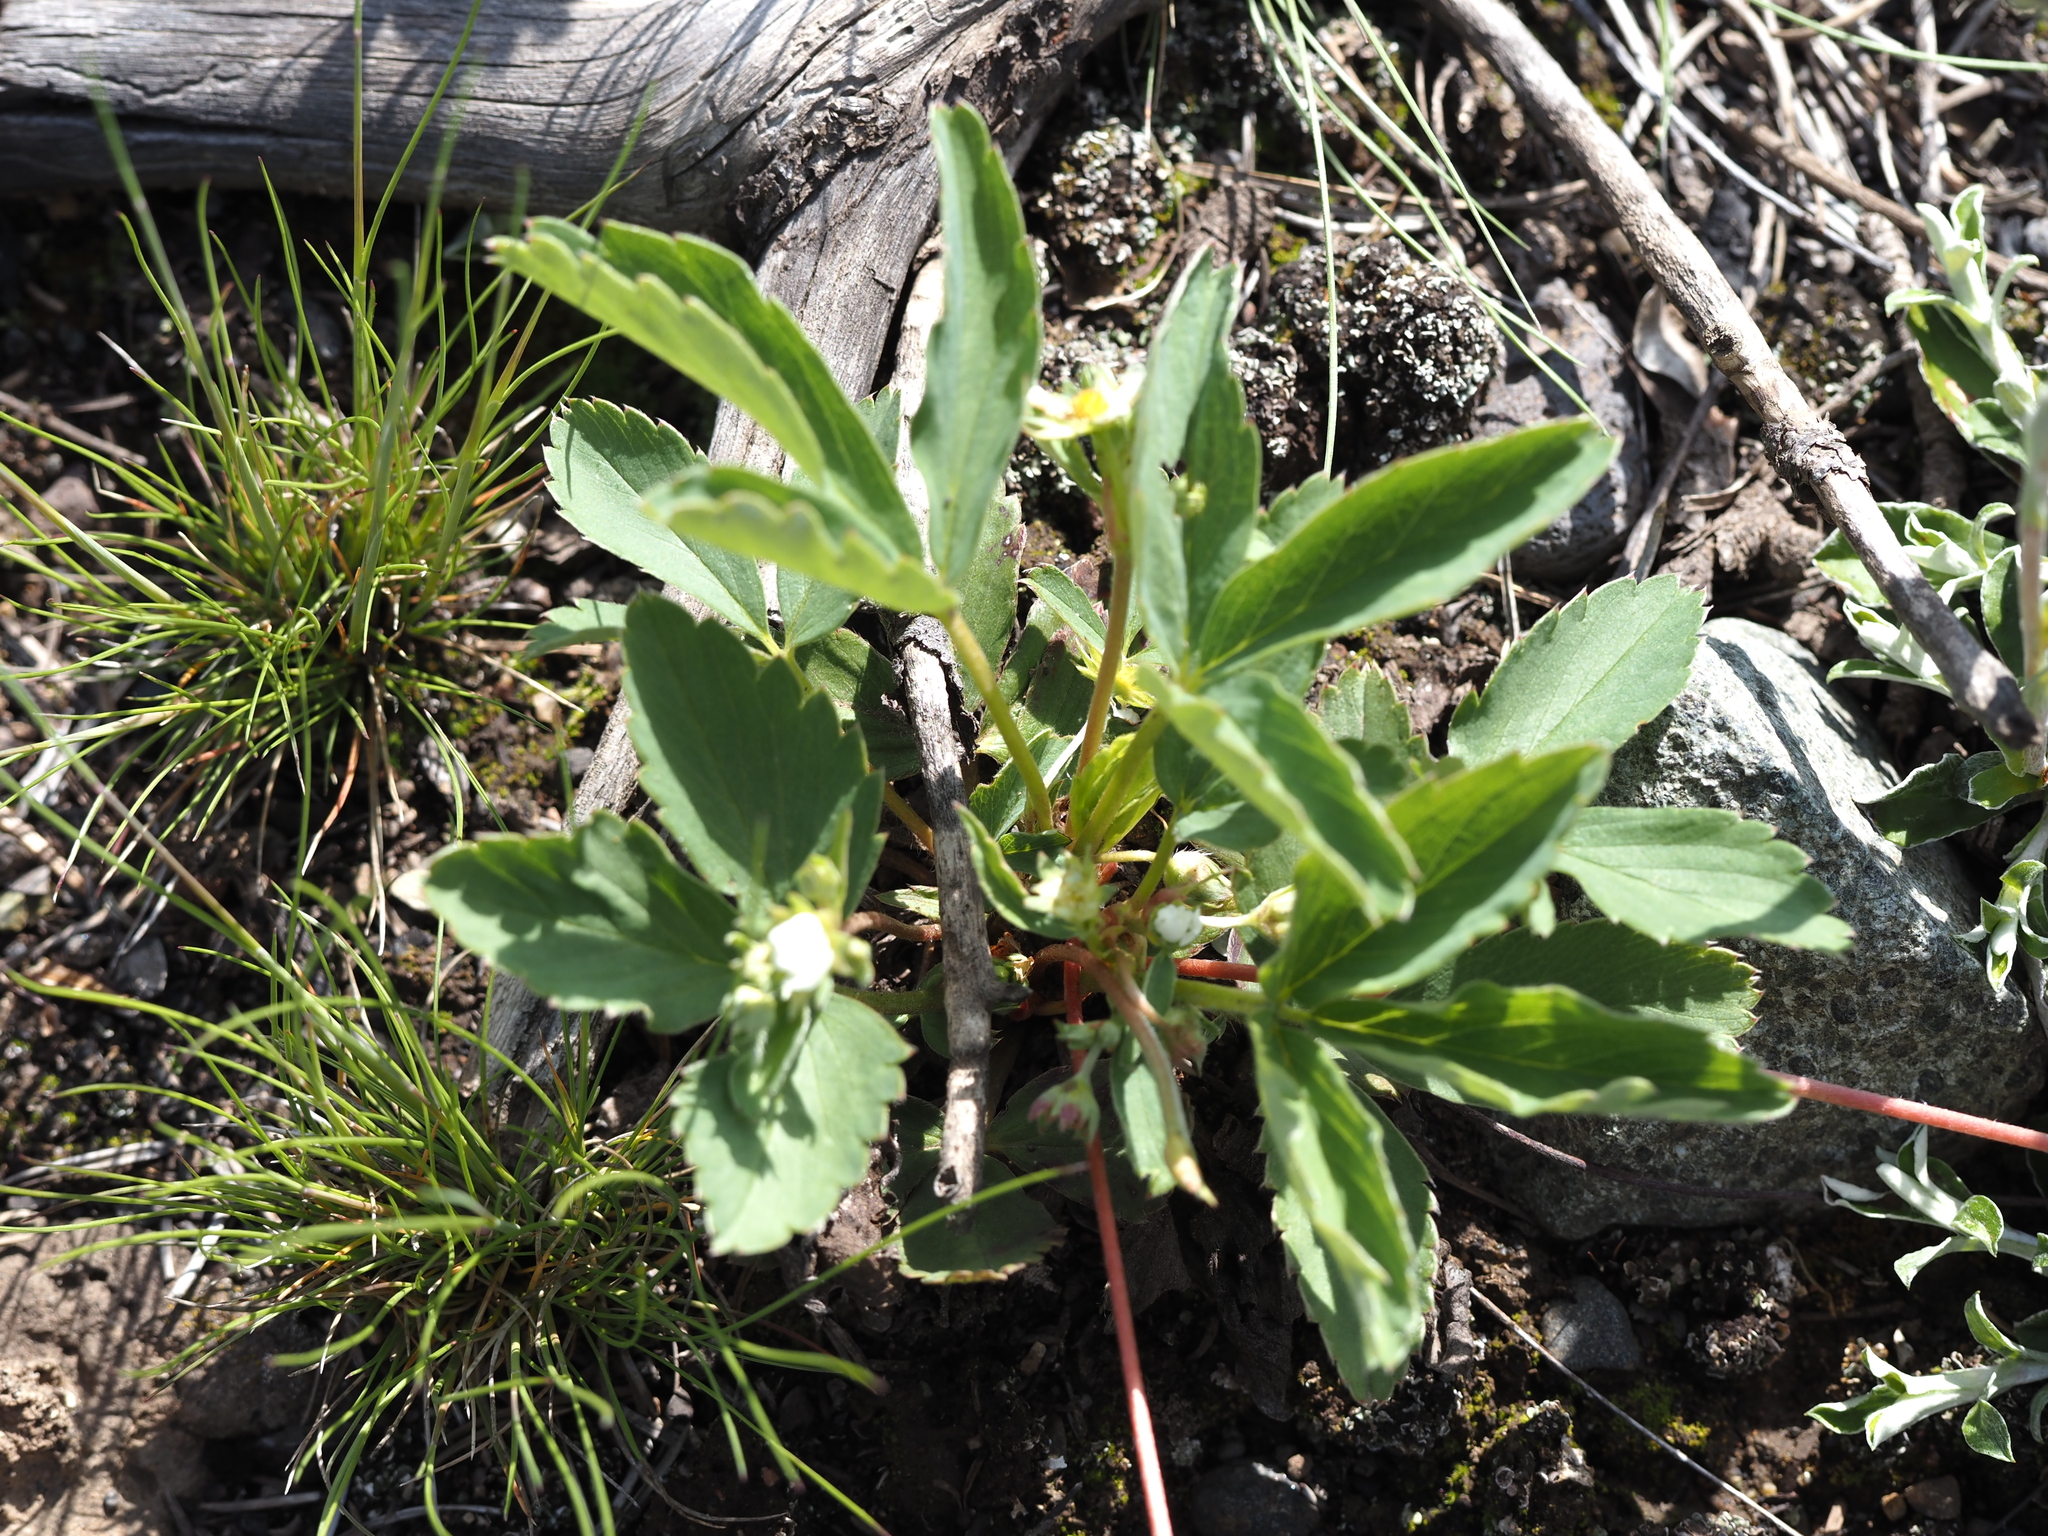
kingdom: Plantae
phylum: Tracheophyta
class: Magnoliopsida
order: Rosales
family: Rosaceae
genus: Fragaria
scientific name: Fragaria virginiana
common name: Thickleaved wild strawberry
